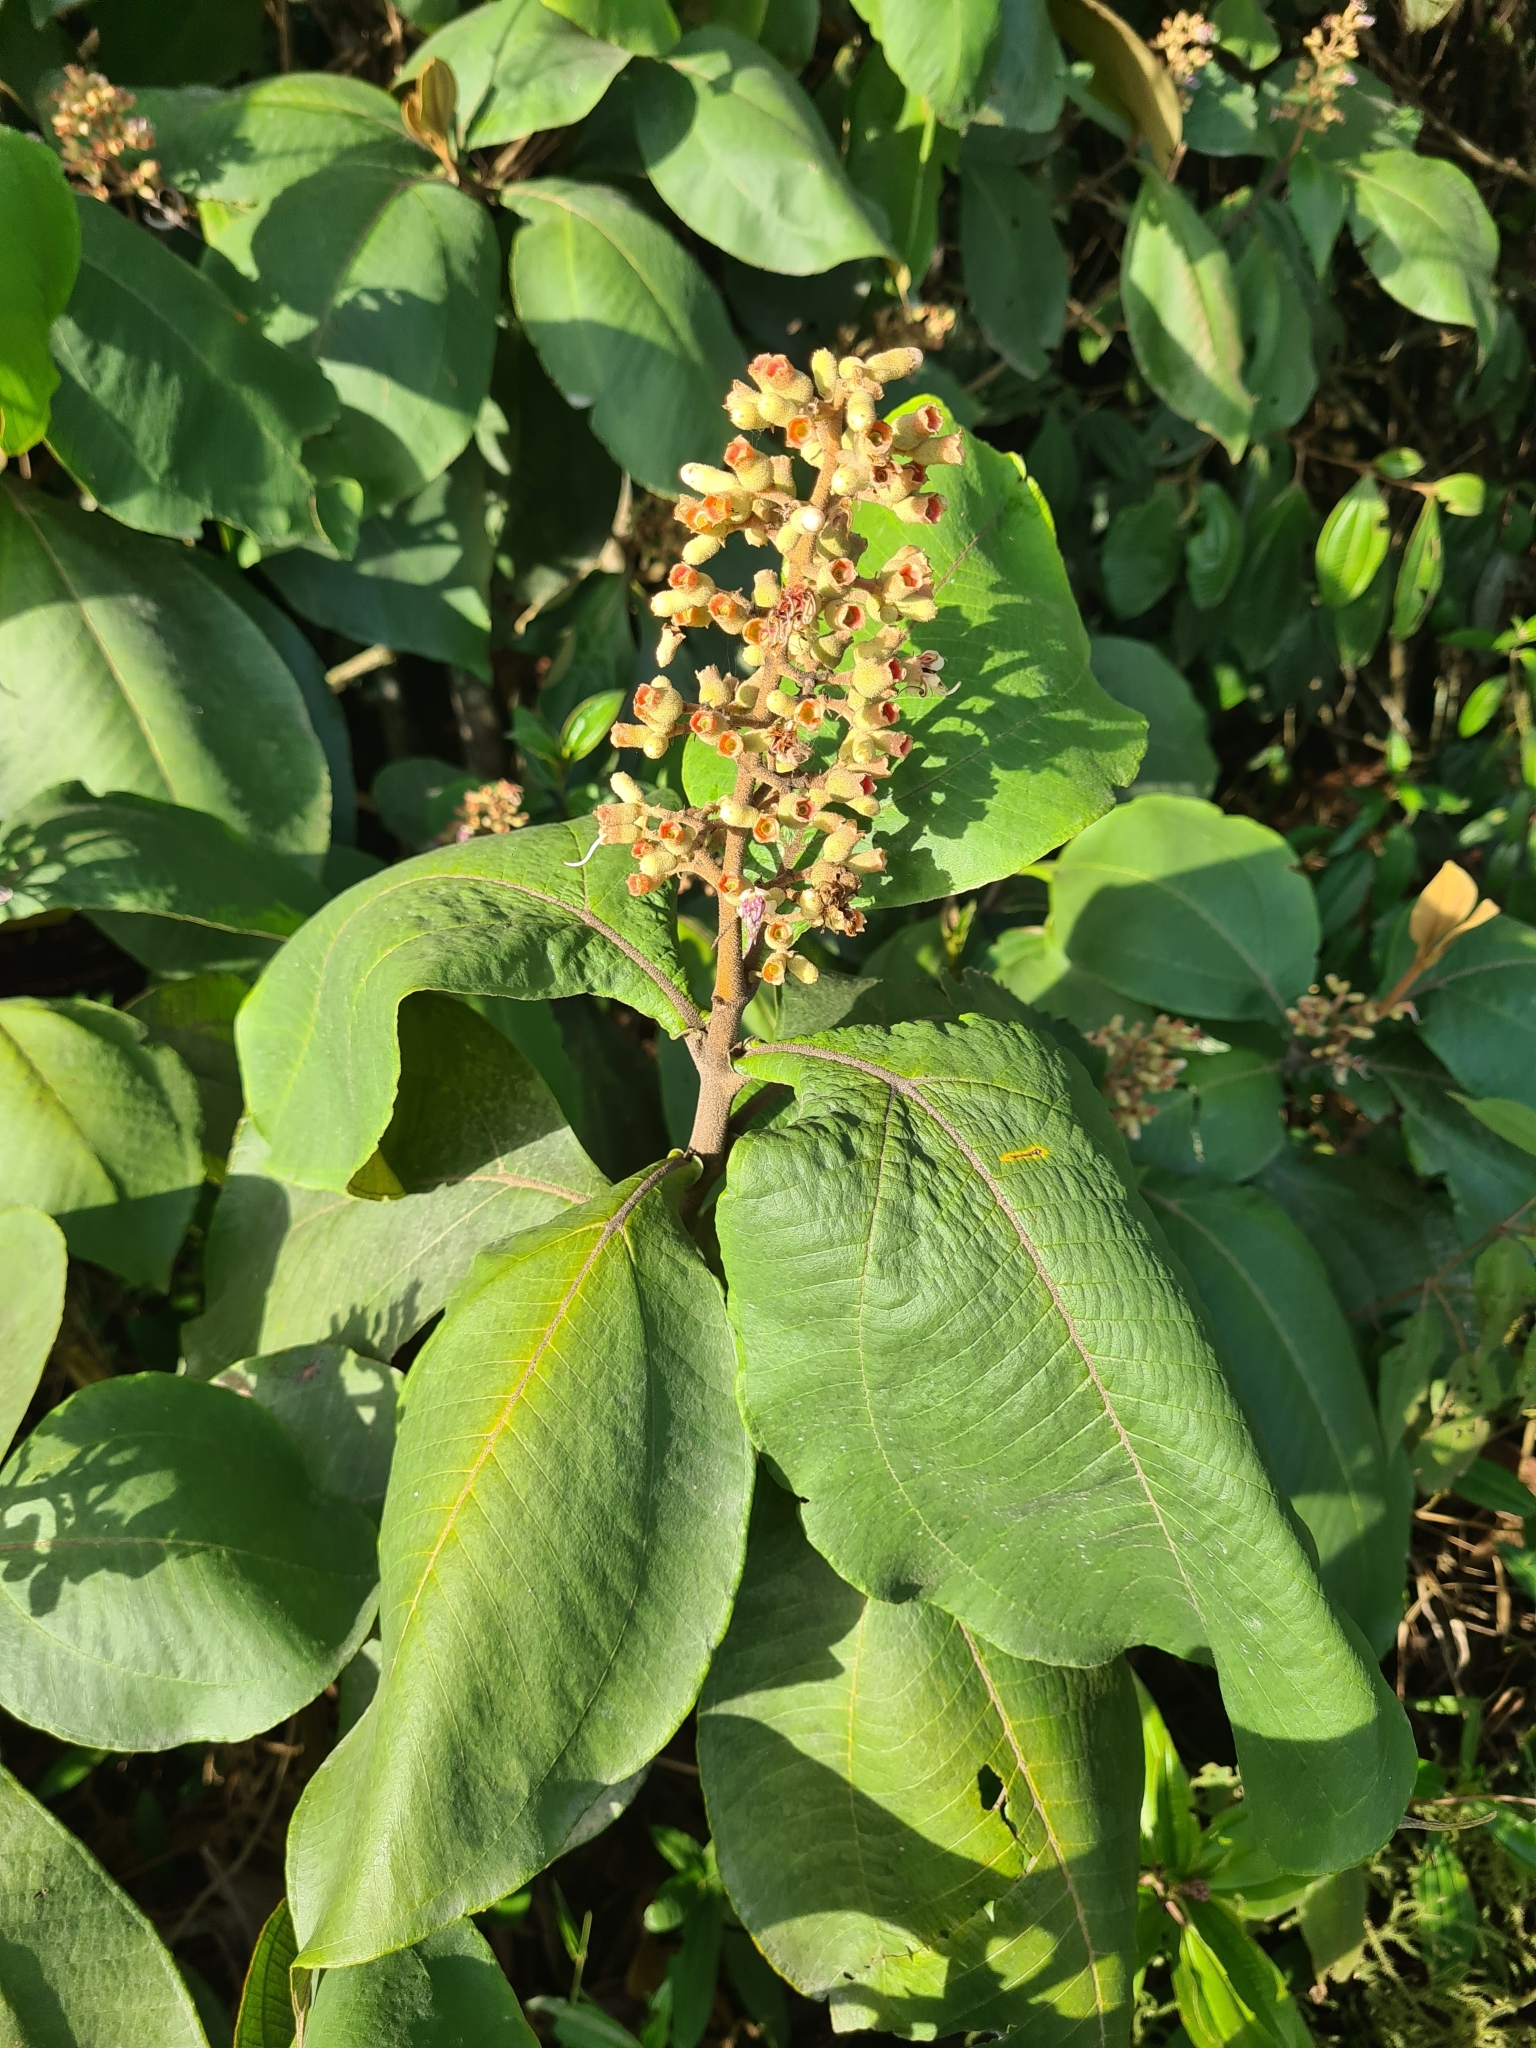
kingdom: Plantae
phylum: Tracheophyta
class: Magnoliopsida
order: Myrtales
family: Melastomataceae
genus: Miconia
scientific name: Miconia tomentosa
